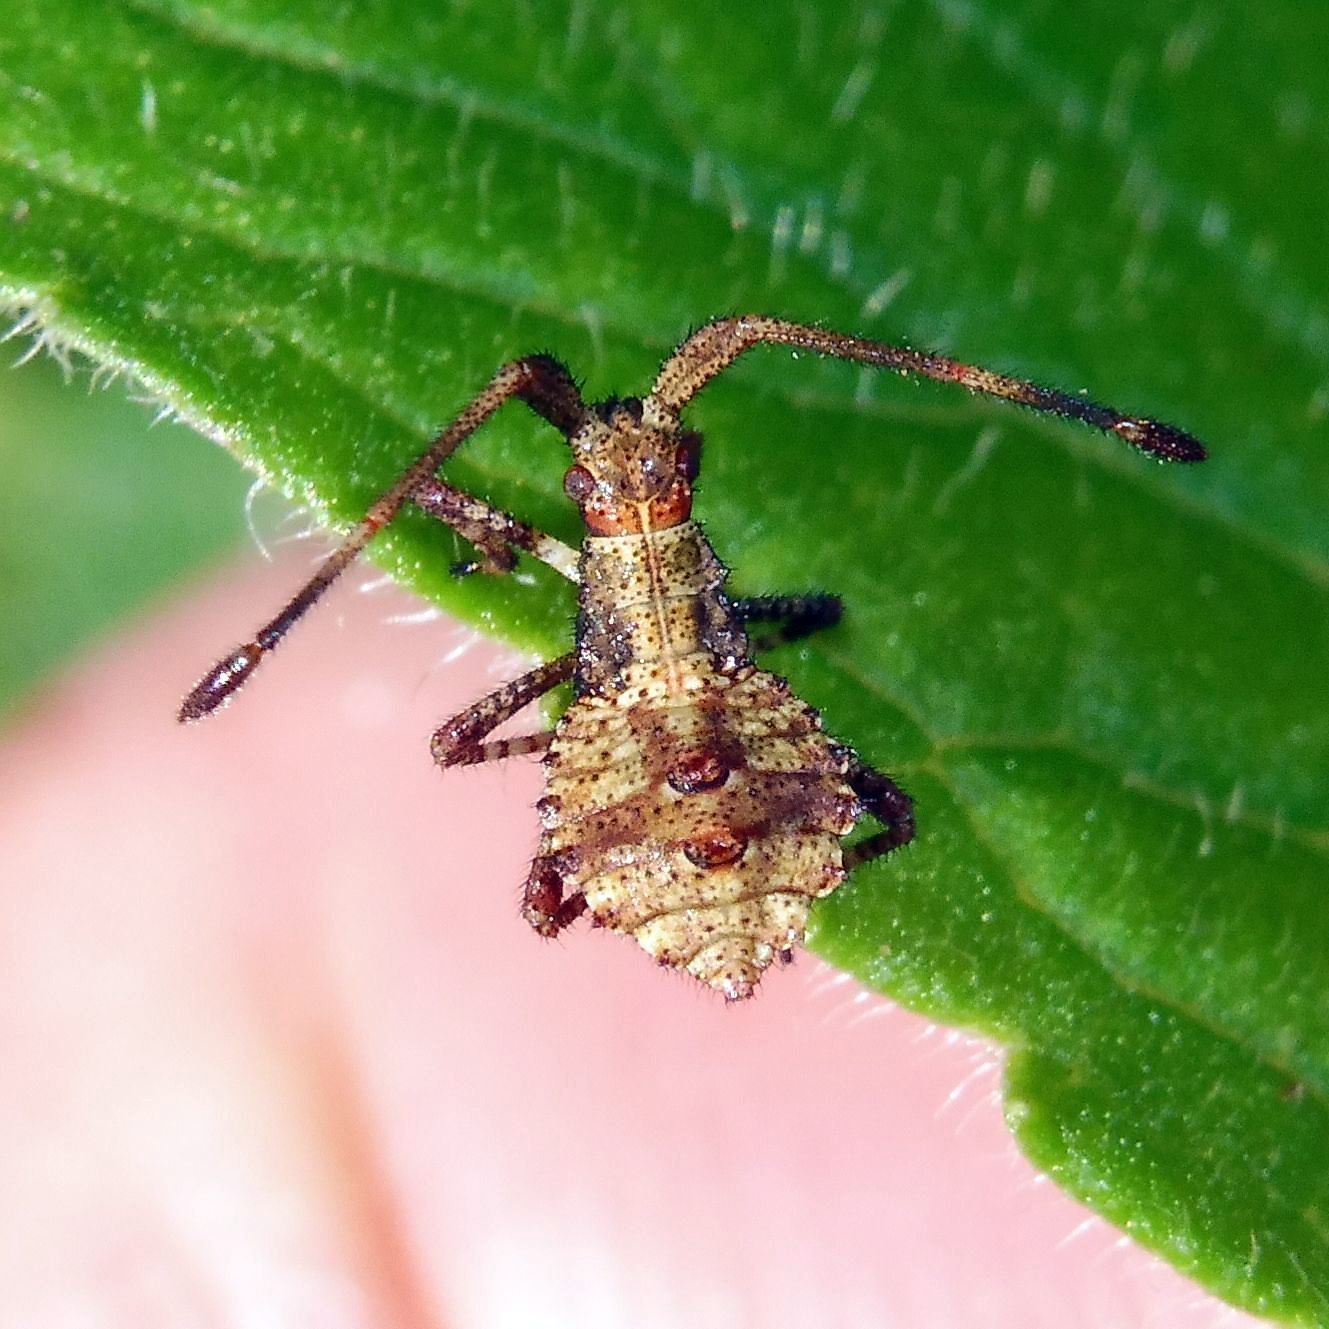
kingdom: Animalia
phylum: Arthropoda
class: Insecta
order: Hemiptera
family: Coreidae
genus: Coreus
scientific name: Coreus marginatus
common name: Dock bug
